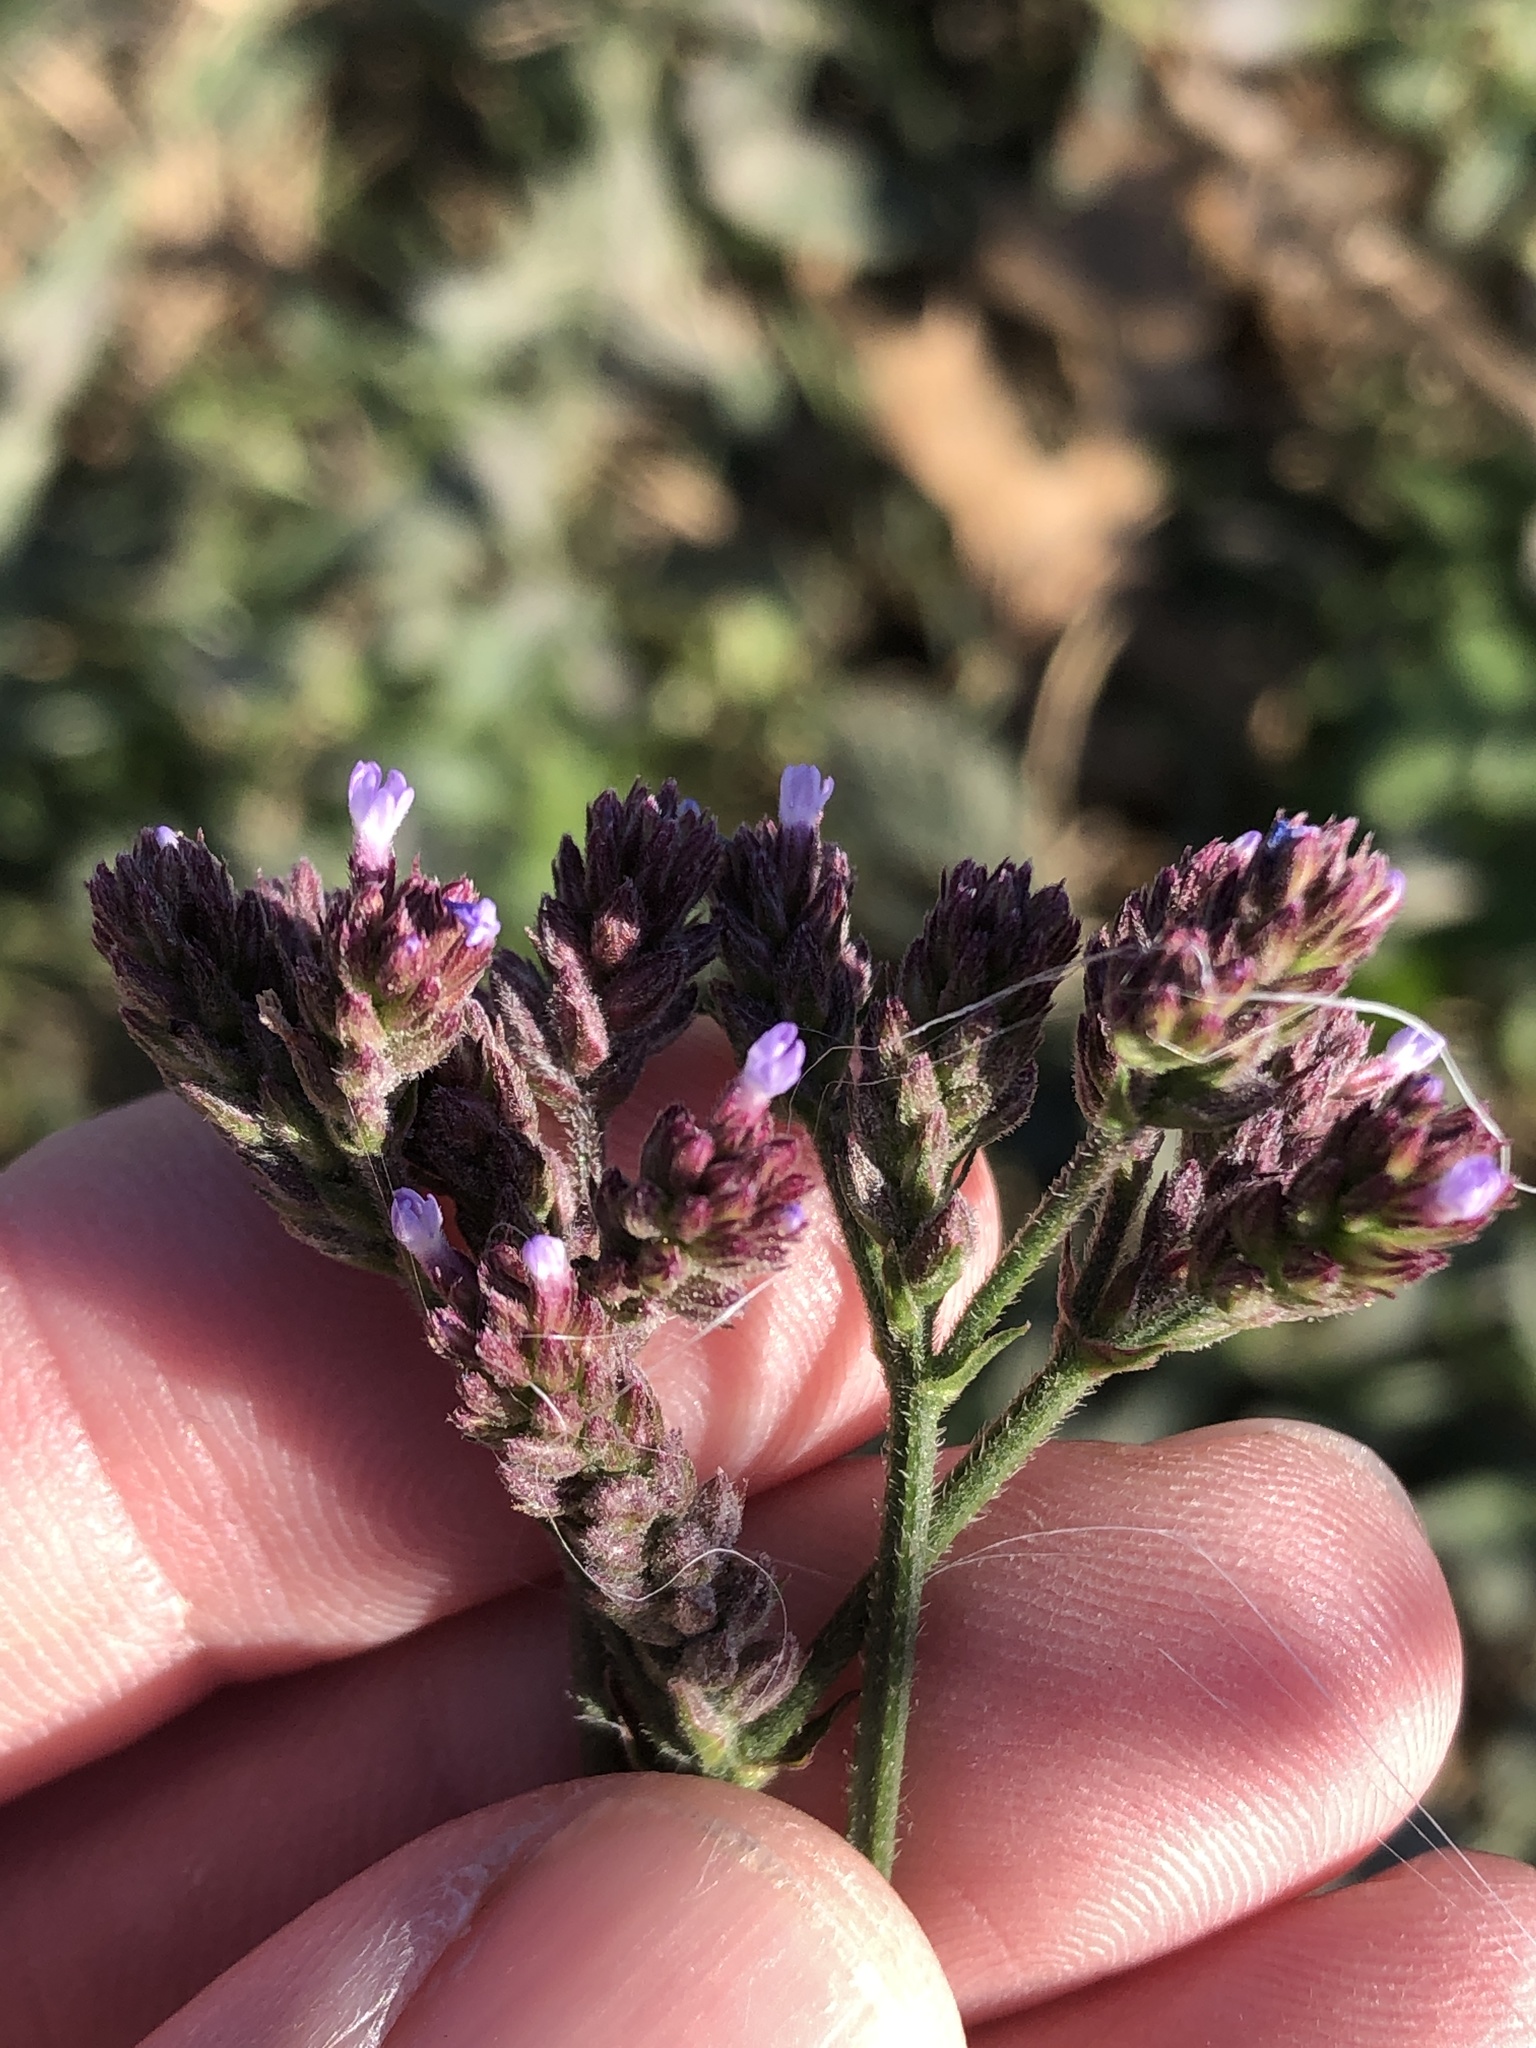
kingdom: Plantae
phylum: Tracheophyta
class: Magnoliopsida
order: Lamiales
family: Verbenaceae
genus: Verbena
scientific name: Verbena brasiliensis
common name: Brazilian vervain
